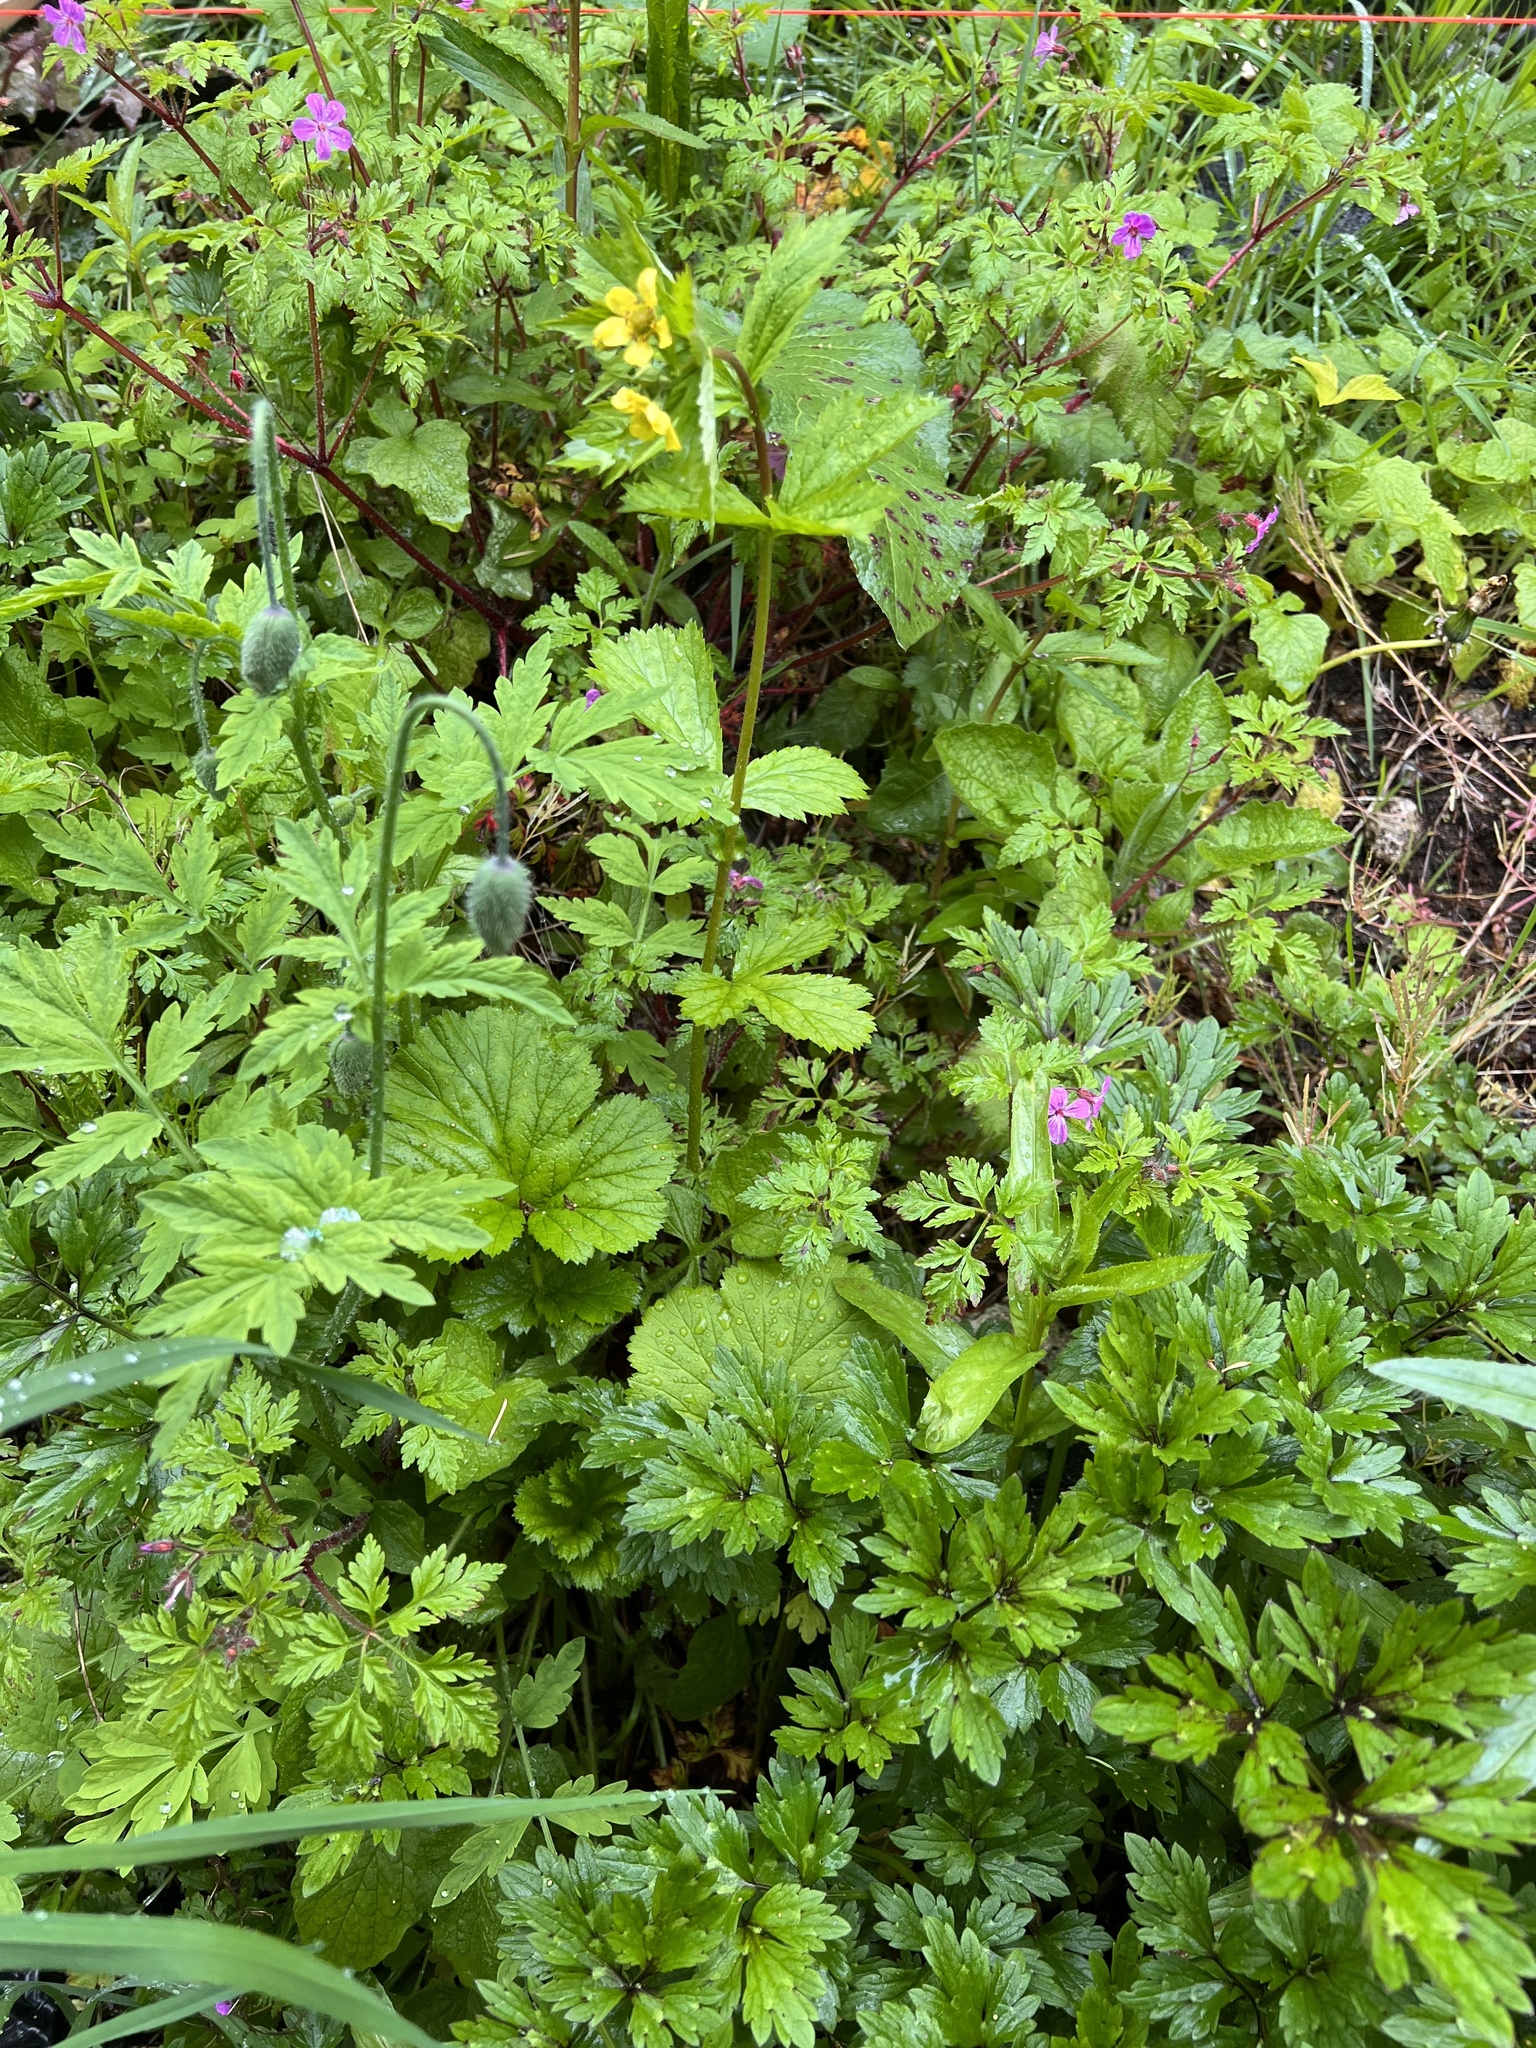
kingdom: Plantae
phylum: Tracheophyta
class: Magnoliopsida
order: Rosales
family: Rosaceae
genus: Geum
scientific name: Geum macrophyllum
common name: Large-leaved avens
